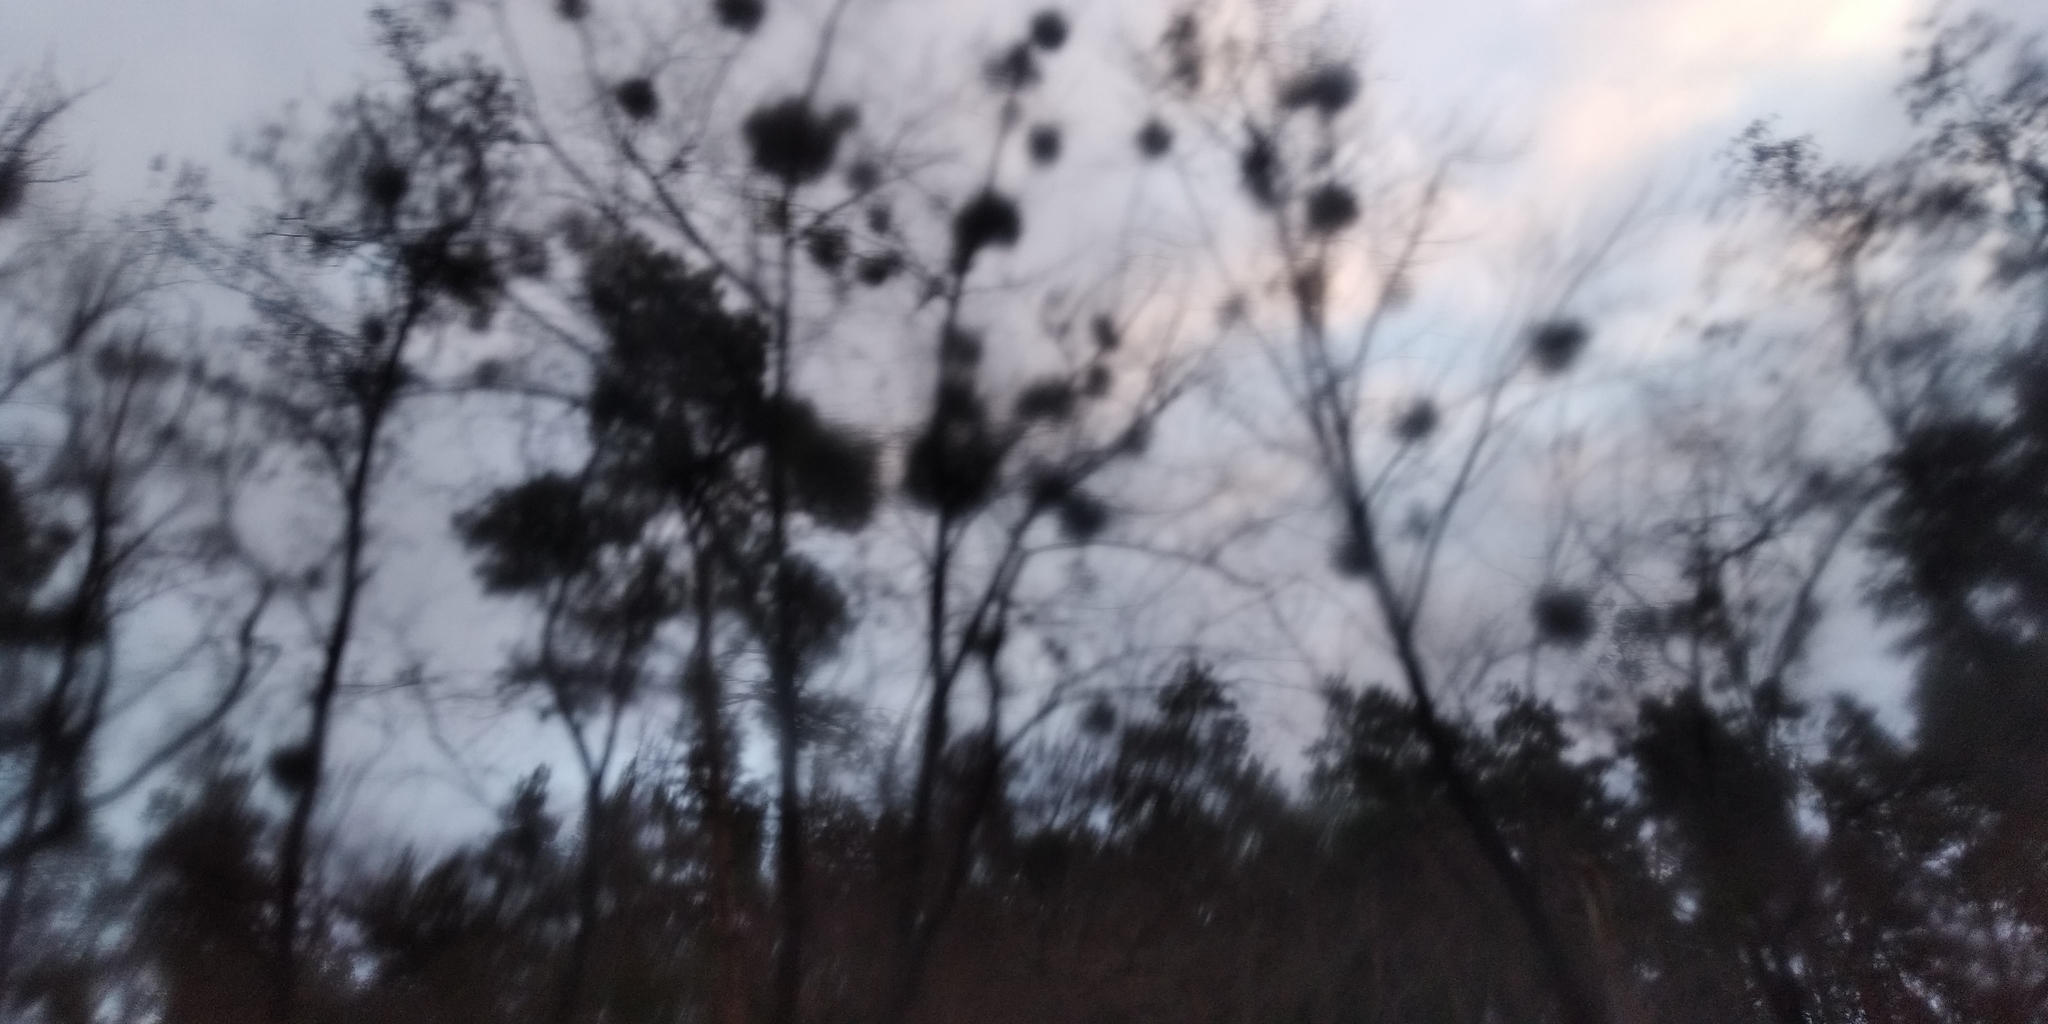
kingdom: Plantae
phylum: Tracheophyta
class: Magnoliopsida
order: Santalales
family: Viscaceae
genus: Viscum
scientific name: Viscum album
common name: Mistletoe
